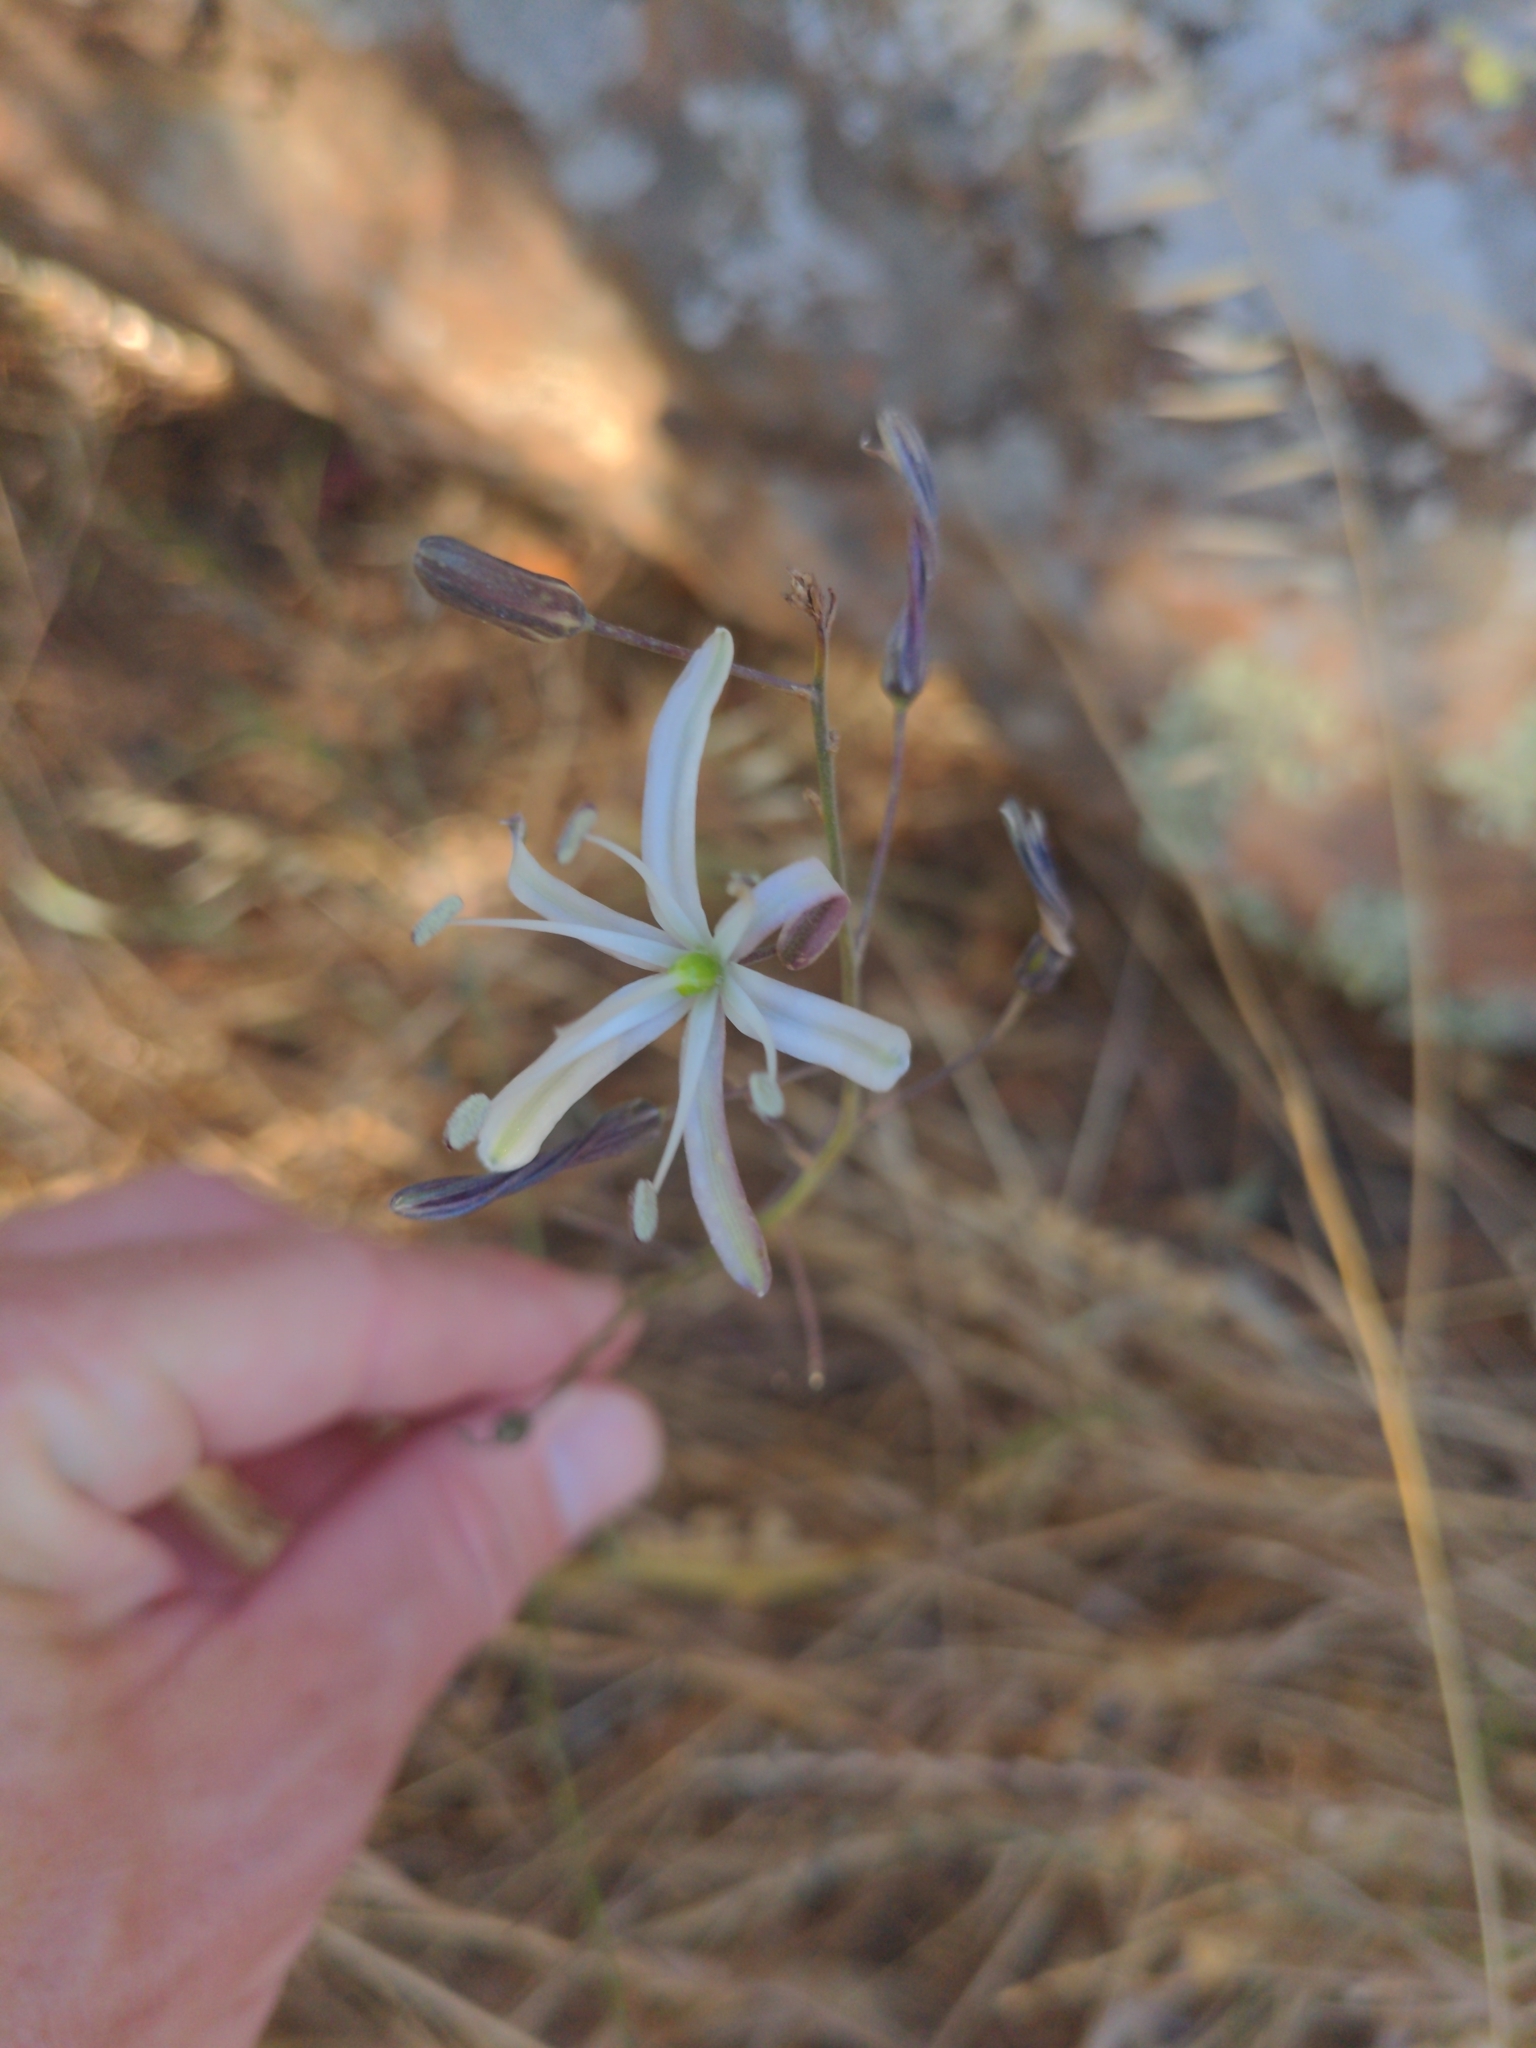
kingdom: Plantae
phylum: Tracheophyta
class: Liliopsida
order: Asparagales
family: Asparagaceae
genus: Chlorogalum
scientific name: Chlorogalum pomeridianum
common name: Amole
